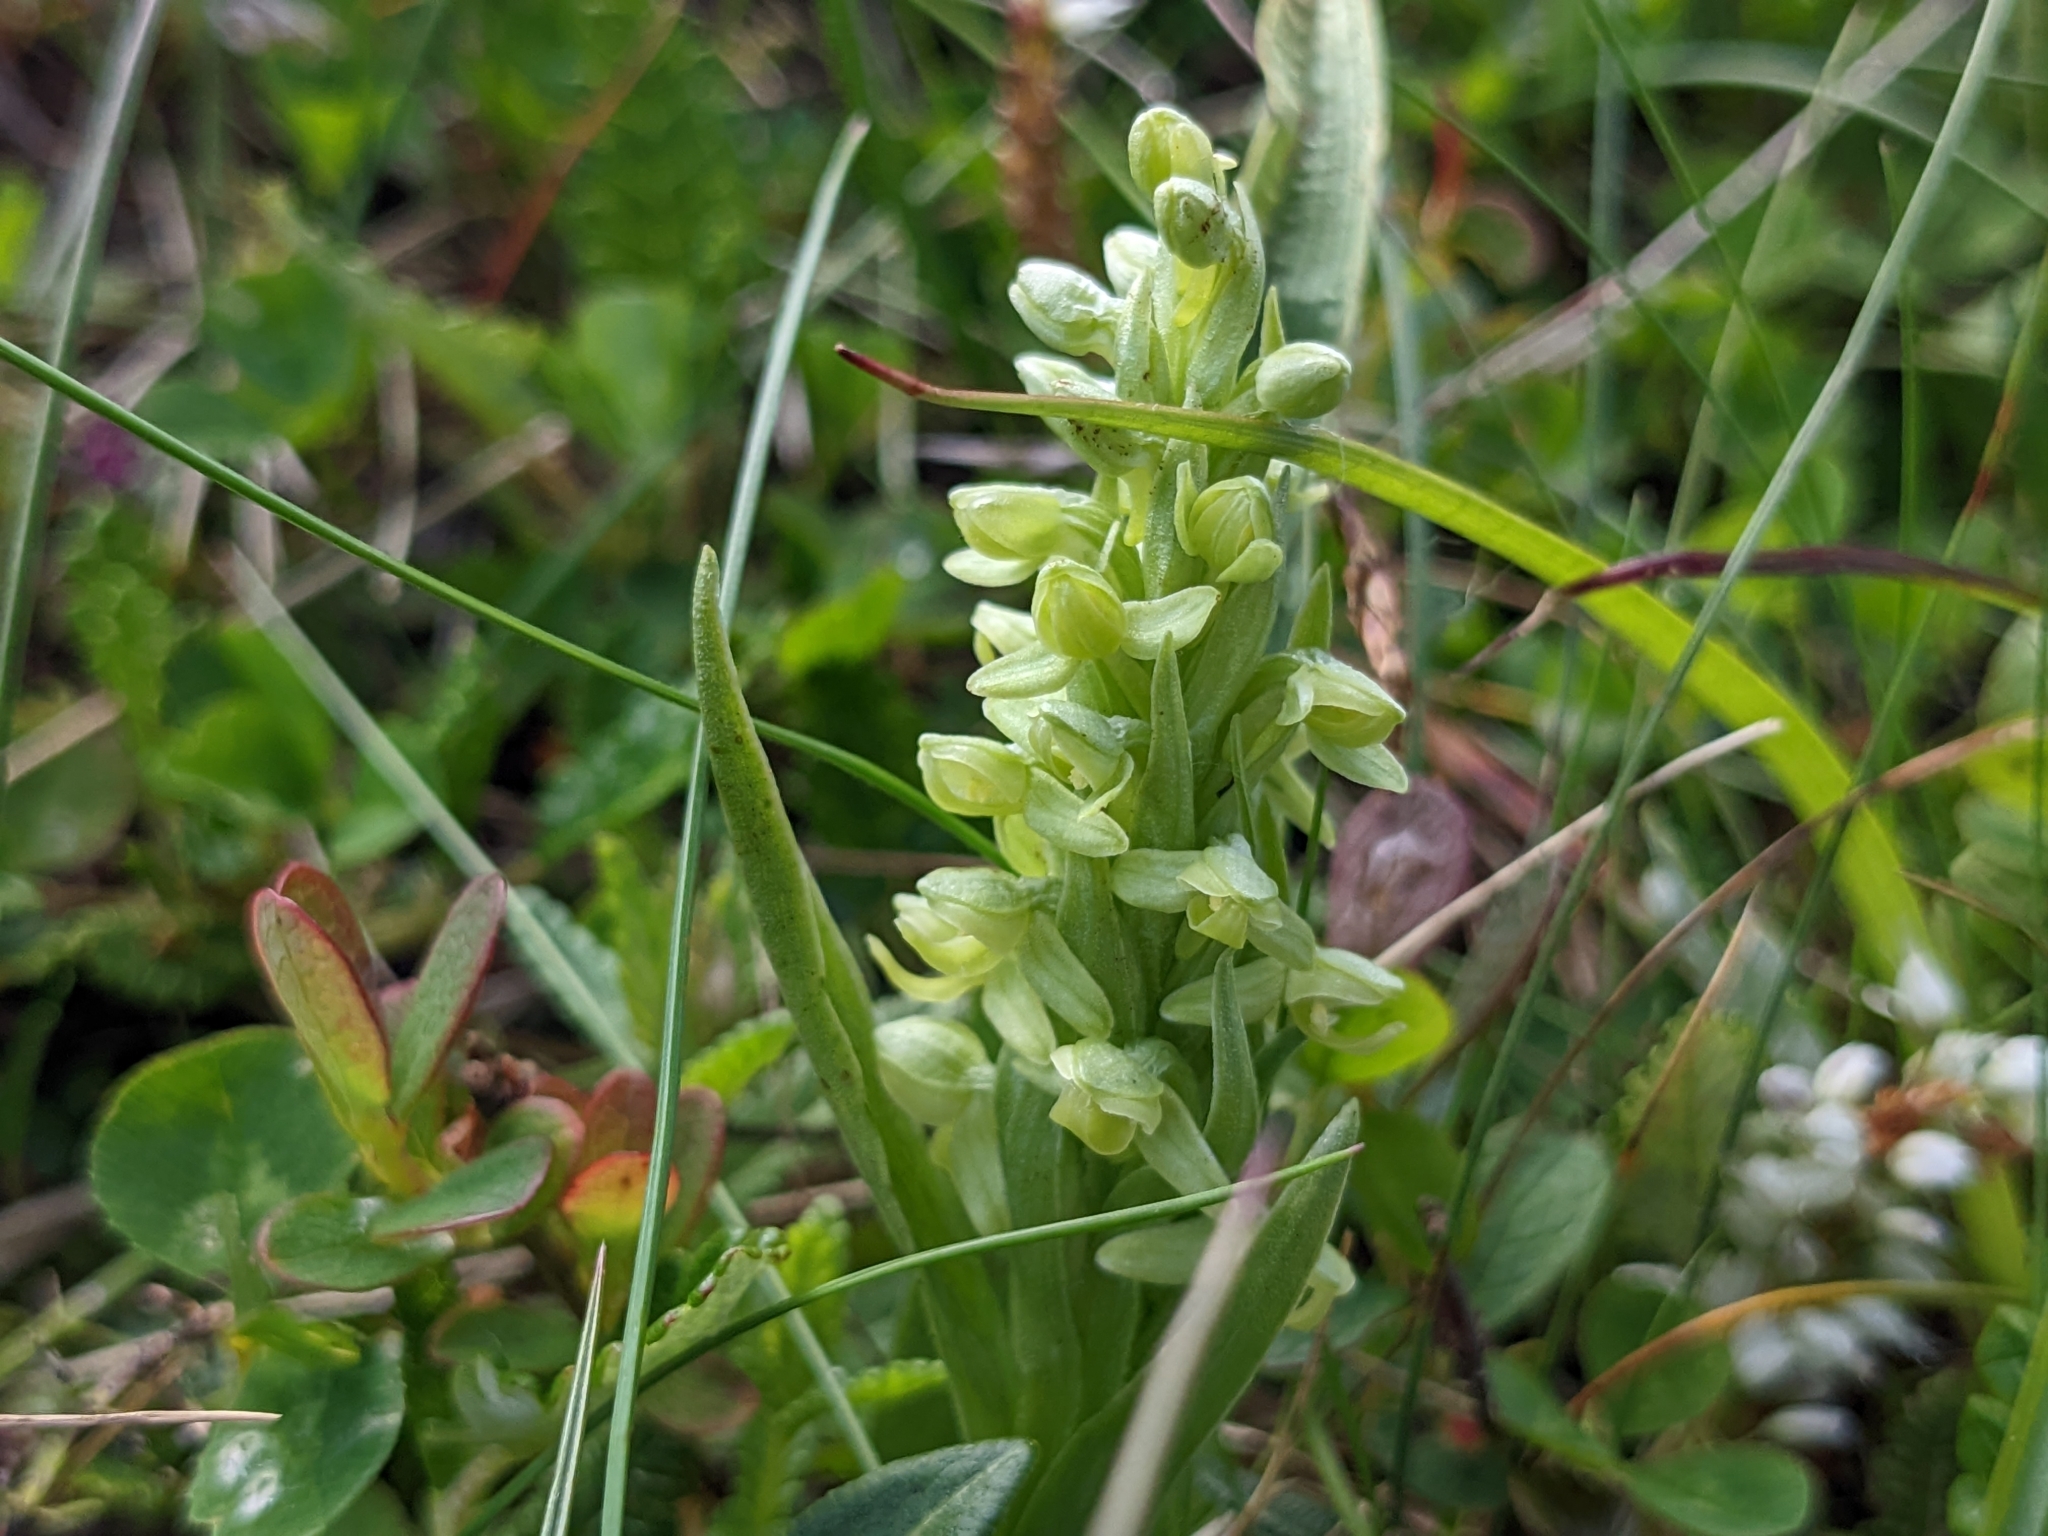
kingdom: Plantae
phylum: Tracheophyta
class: Liliopsida
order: Asparagales
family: Orchidaceae
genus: Platanthera
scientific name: Platanthera hyperborea
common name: Northern green orchid
